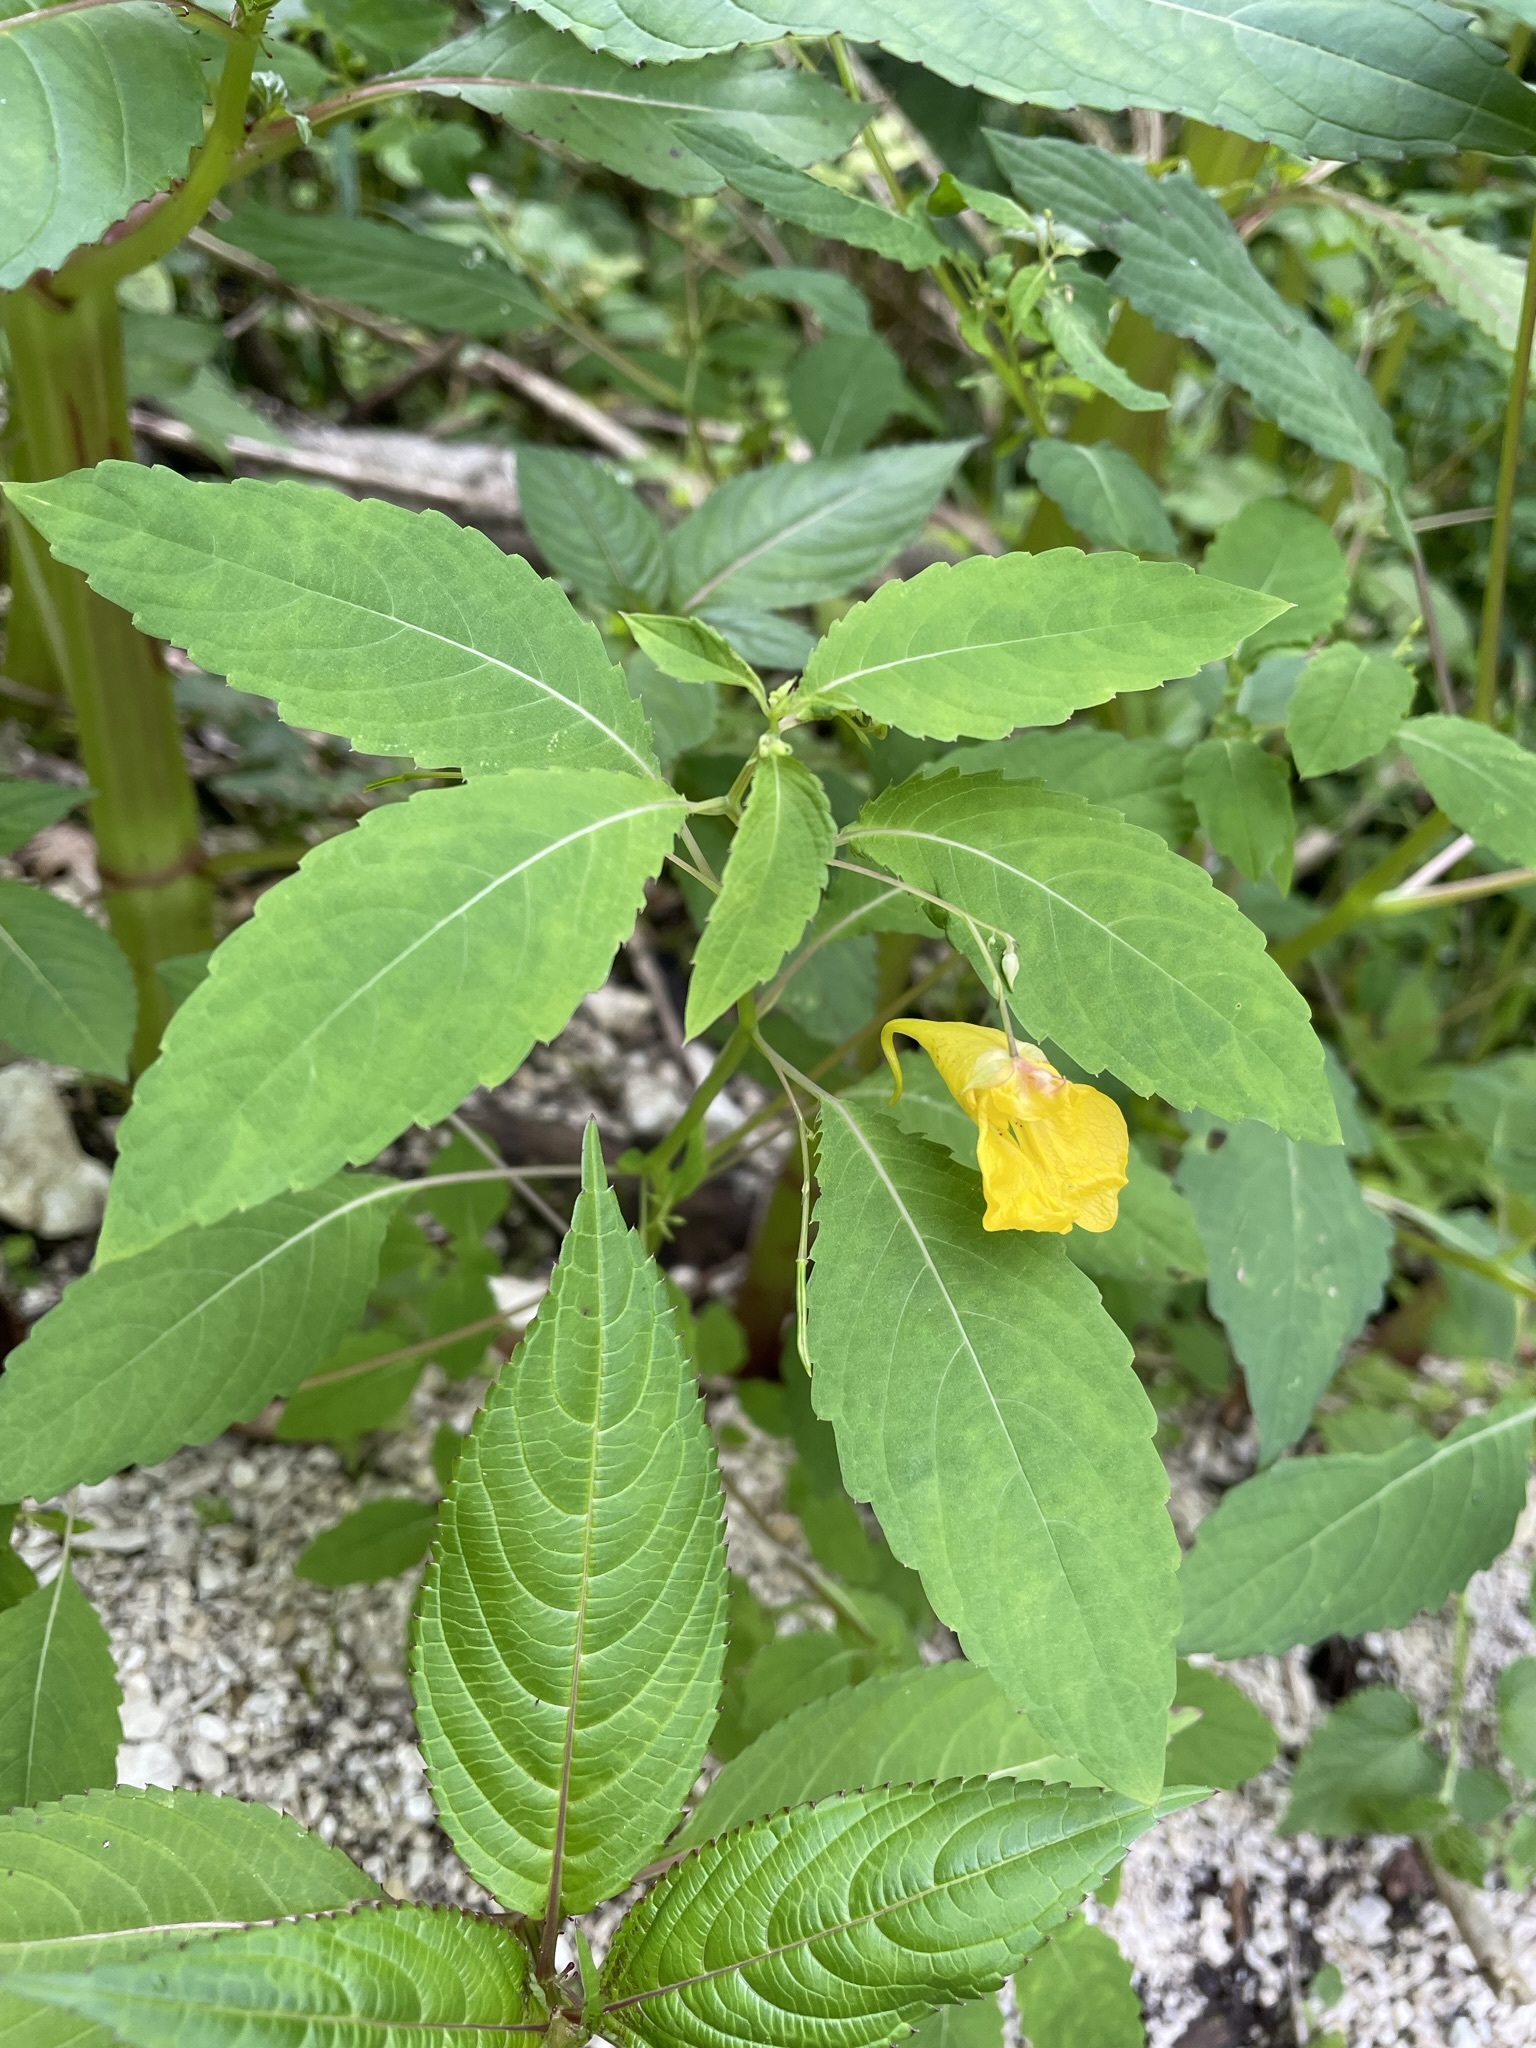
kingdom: Plantae
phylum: Tracheophyta
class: Magnoliopsida
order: Ericales
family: Balsaminaceae
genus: Impatiens
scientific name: Impatiens noli-tangere
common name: Touch-me-not balsam
